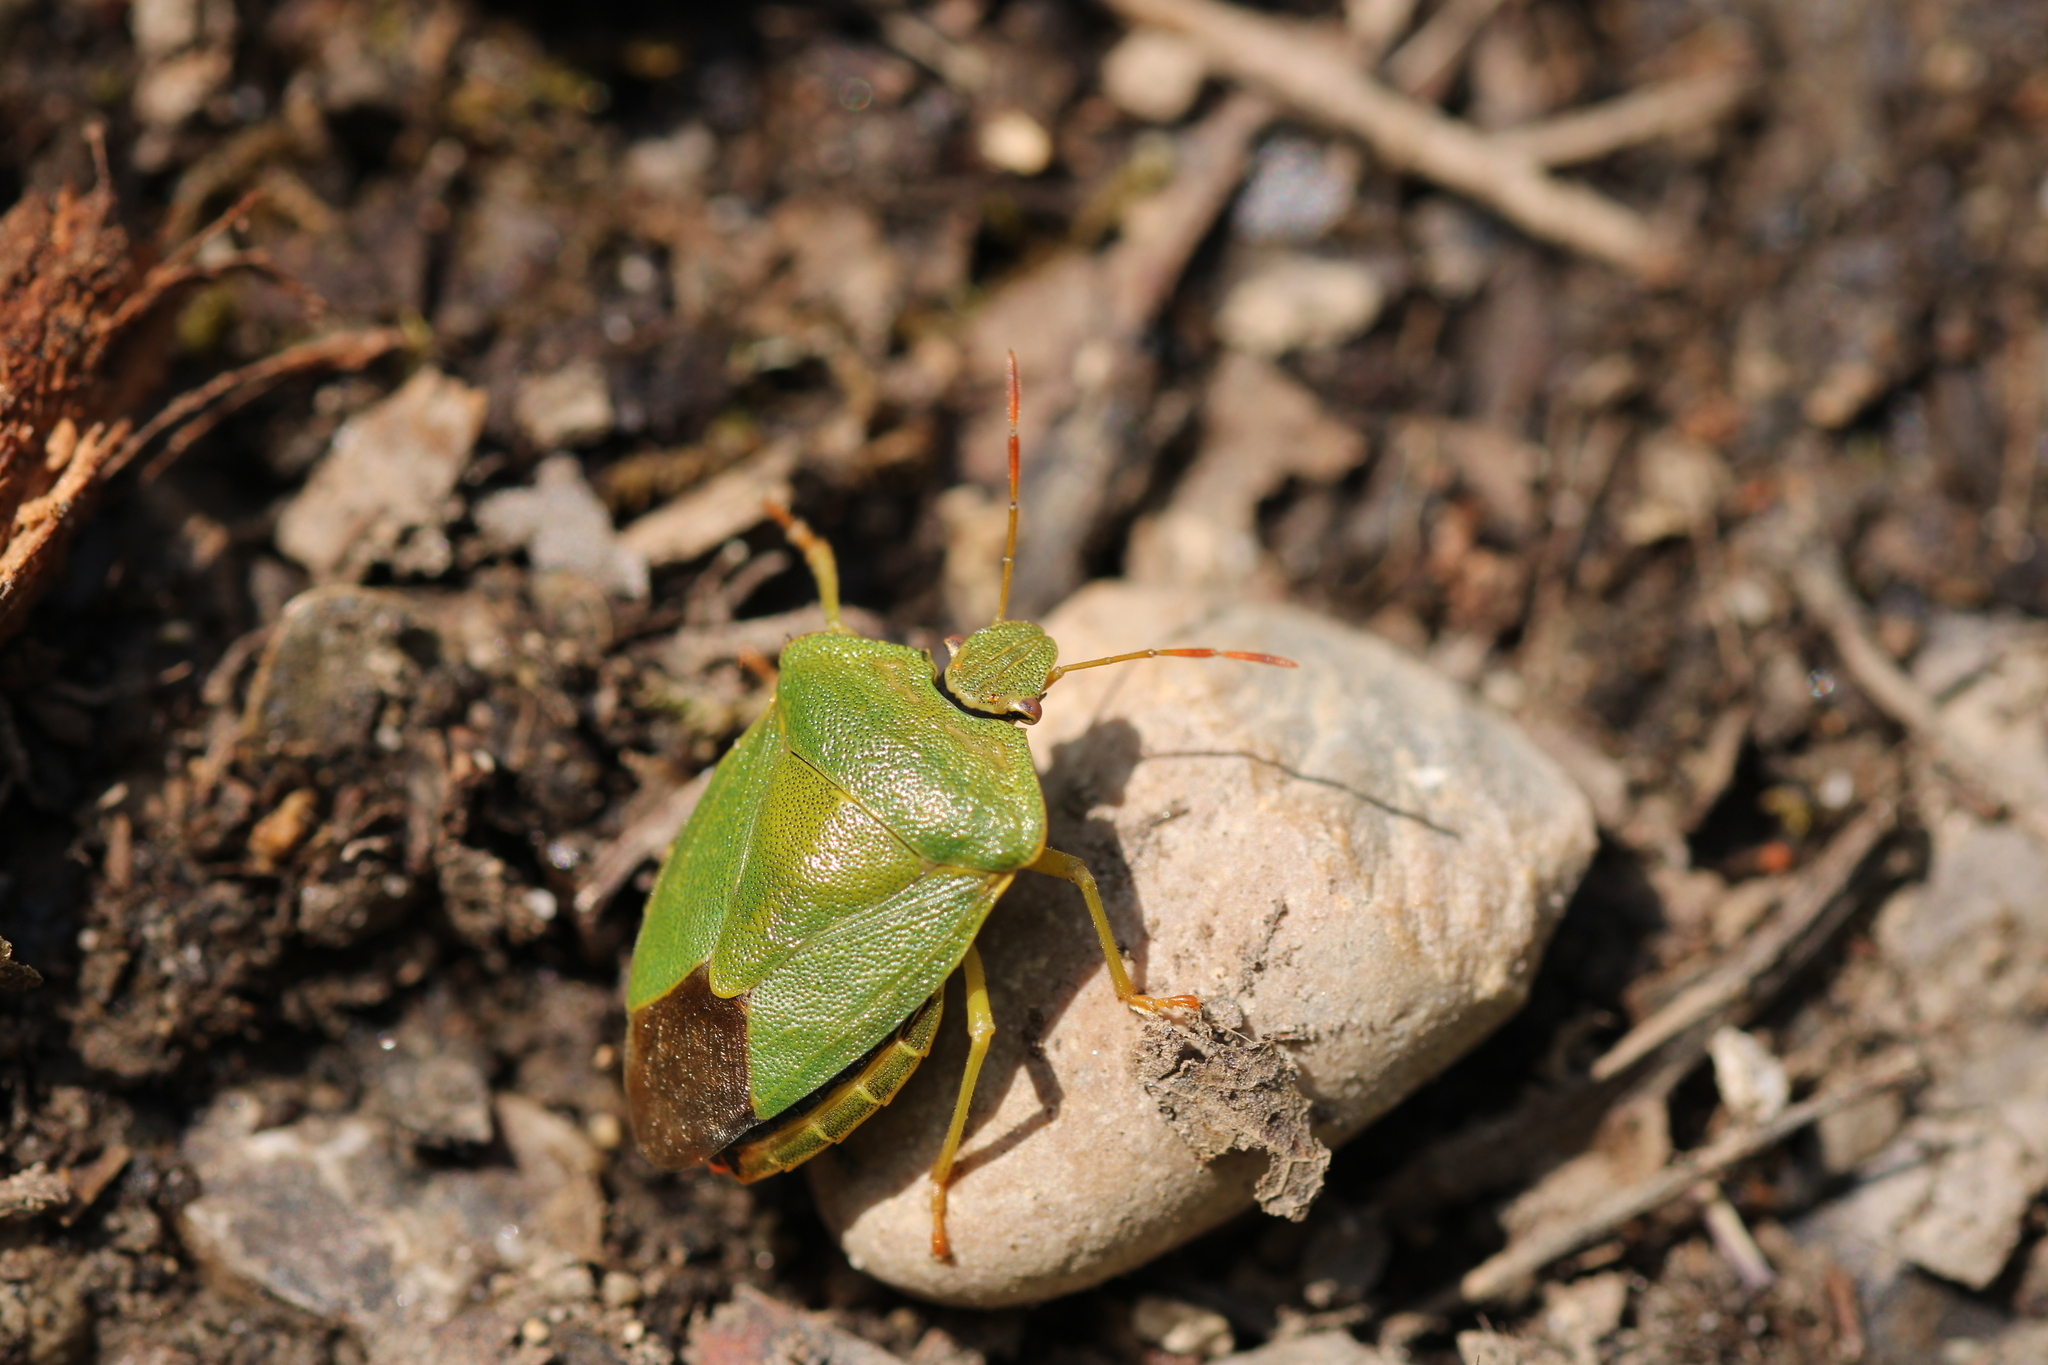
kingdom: Animalia
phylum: Arthropoda
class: Insecta
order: Hemiptera
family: Pentatomidae
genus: Palomena
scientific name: Palomena prasina
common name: Green shieldbug
